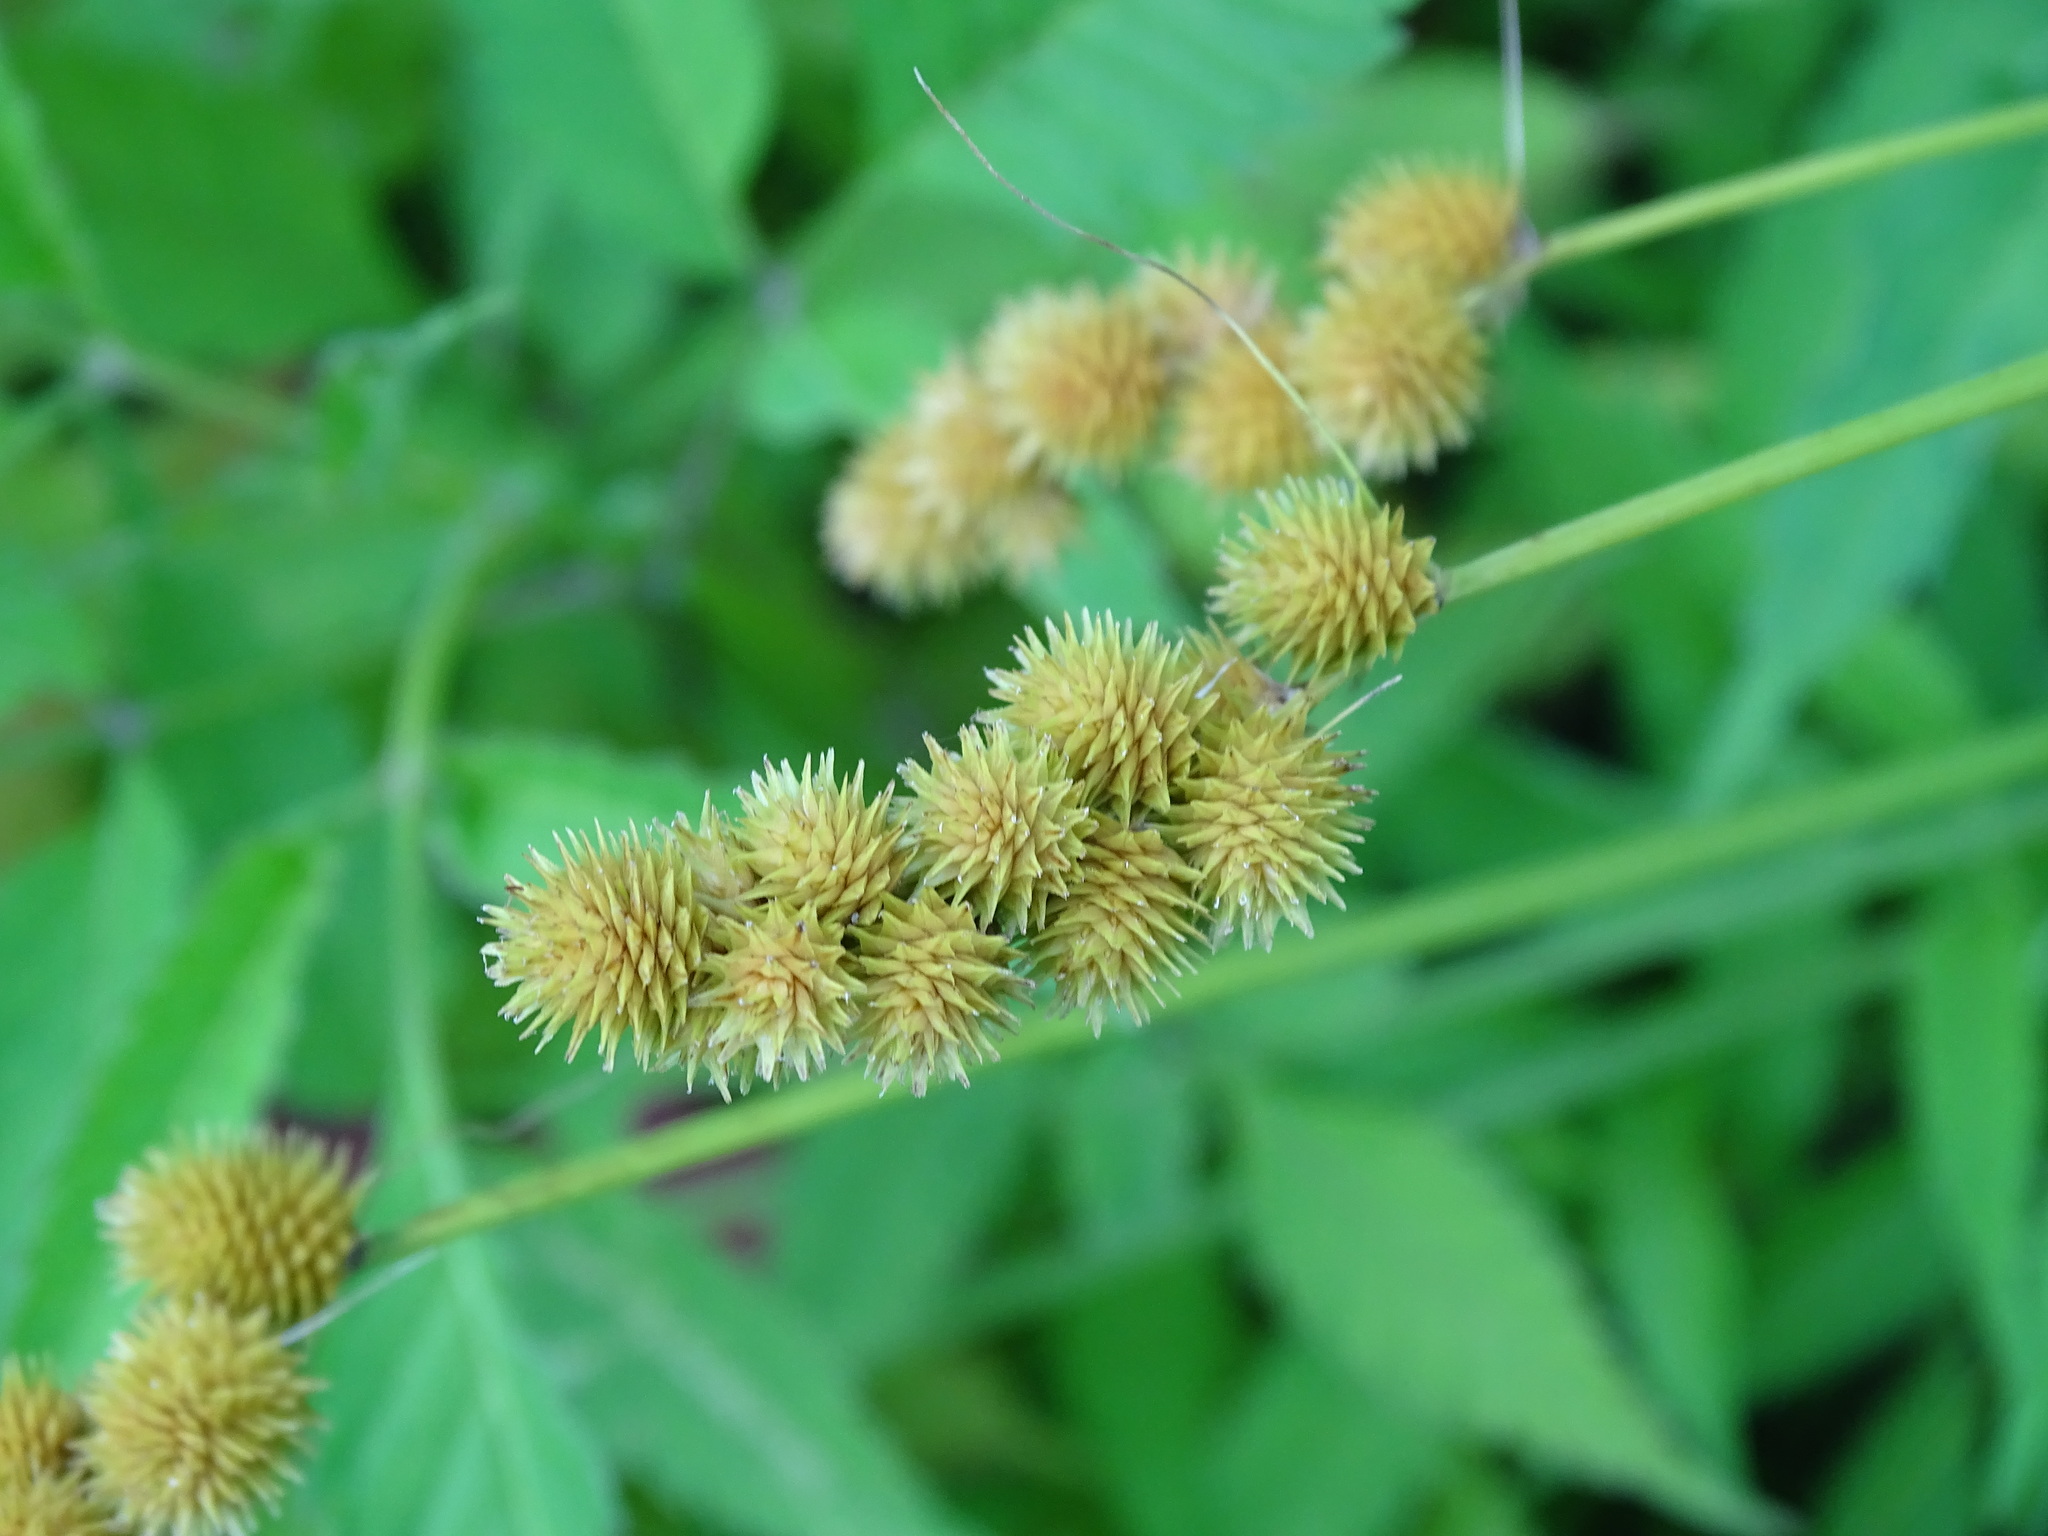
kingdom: Plantae
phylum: Tracheophyta
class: Liliopsida
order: Poales
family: Cyperaceae
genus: Carex
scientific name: Carex cristatella
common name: Crested oval sedge
